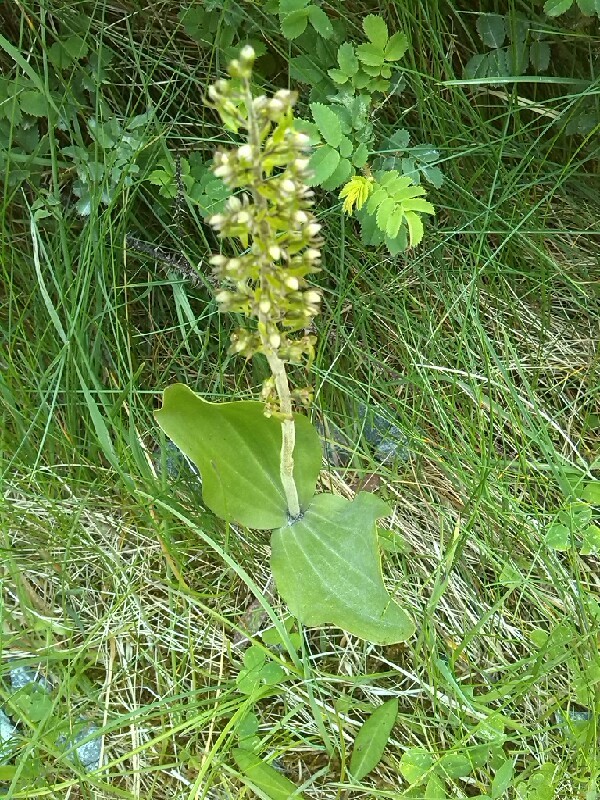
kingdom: Plantae
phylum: Tracheophyta
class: Liliopsida
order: Asparagales
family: Orchidaceae
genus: Neottia
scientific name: Neottia ovata
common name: Common twayblade
